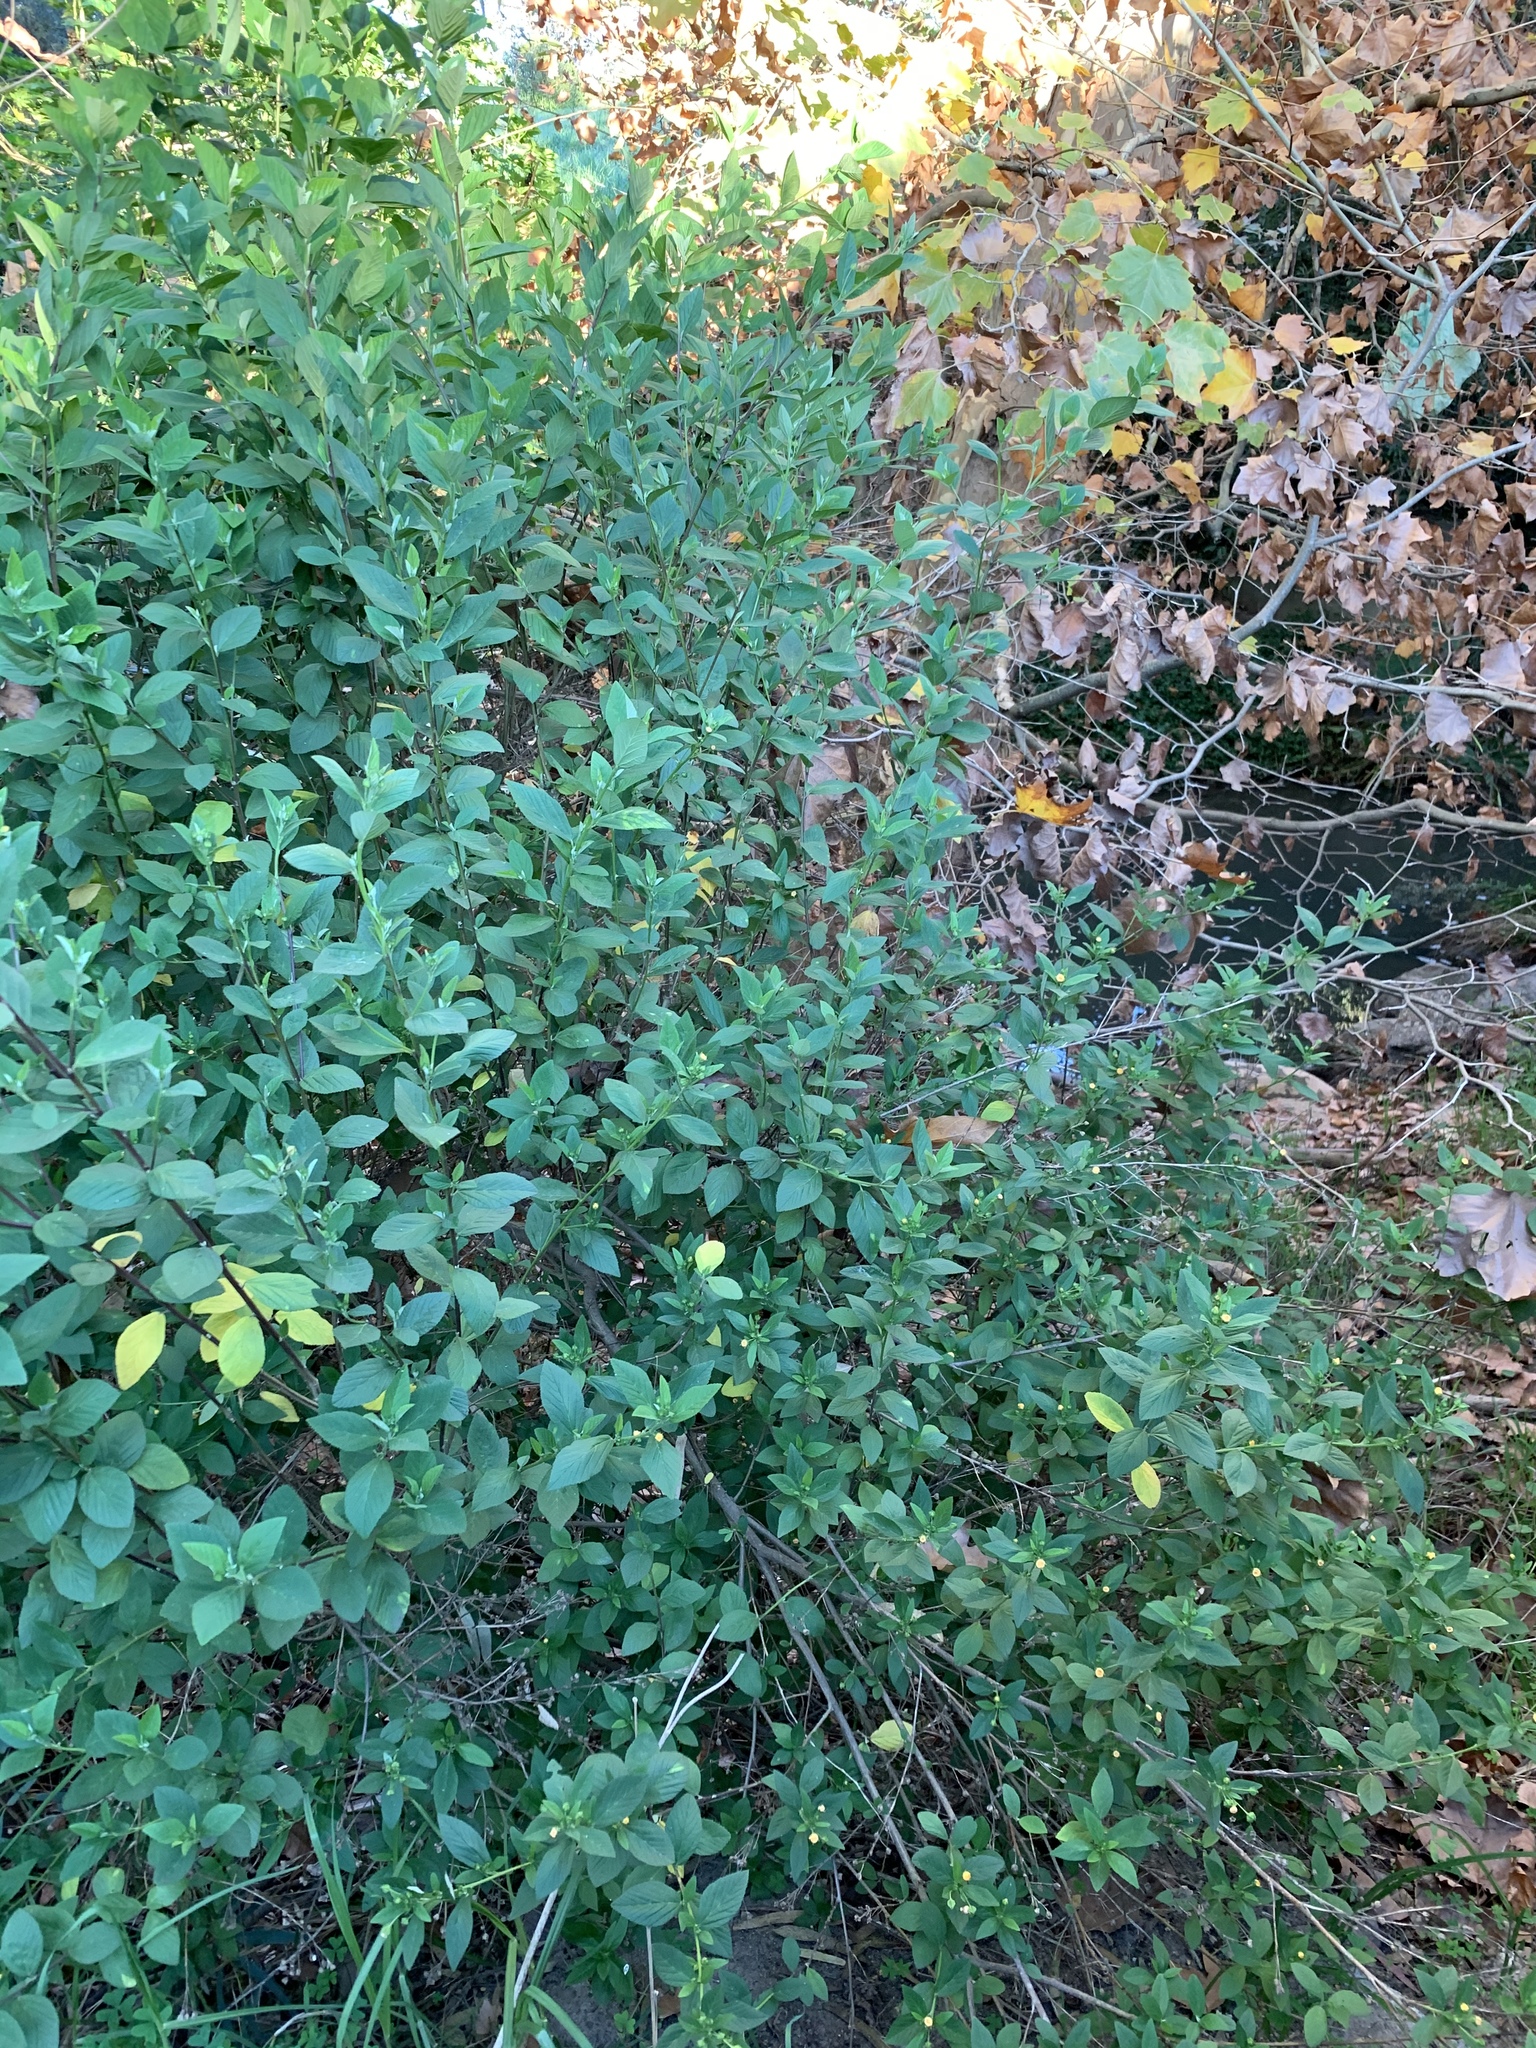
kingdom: Plantae
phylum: Tracheophyta
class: Magnoliopsida
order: Malvales
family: Malvaceae
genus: Sida
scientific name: Sida rhombifolia
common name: Queensland-hemp
